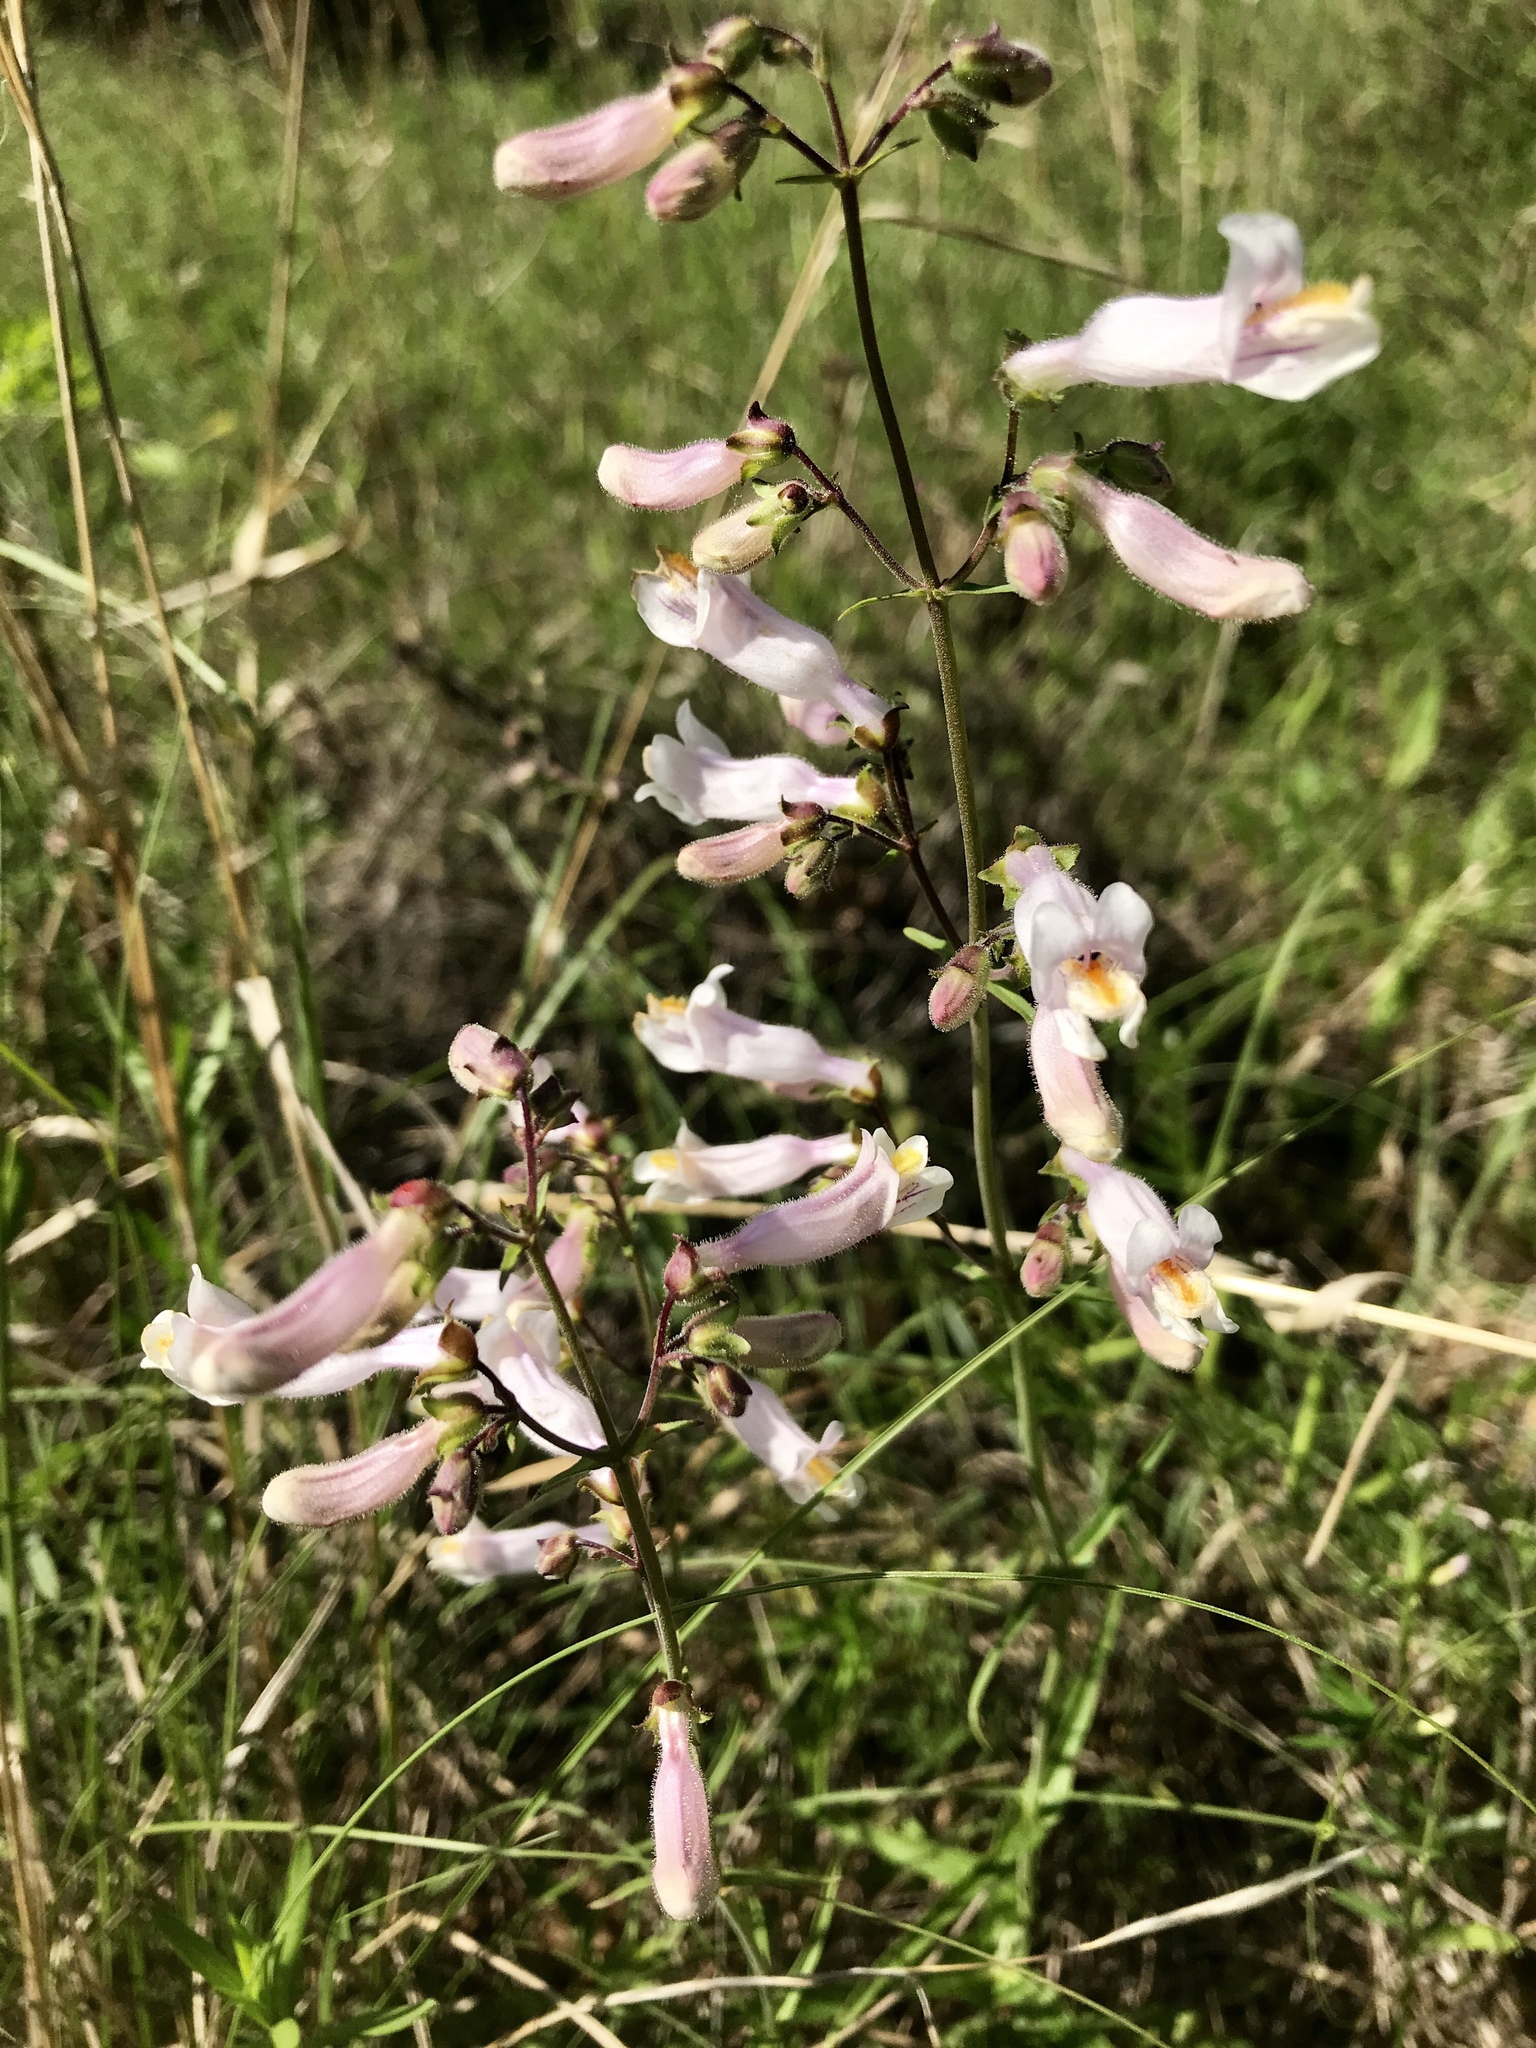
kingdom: Plantae
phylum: Tracheophyta
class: Magnoliopsida
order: Lamiales
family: Plantaginaceae
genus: Penstemon
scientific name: Penstemon laxiflorus
